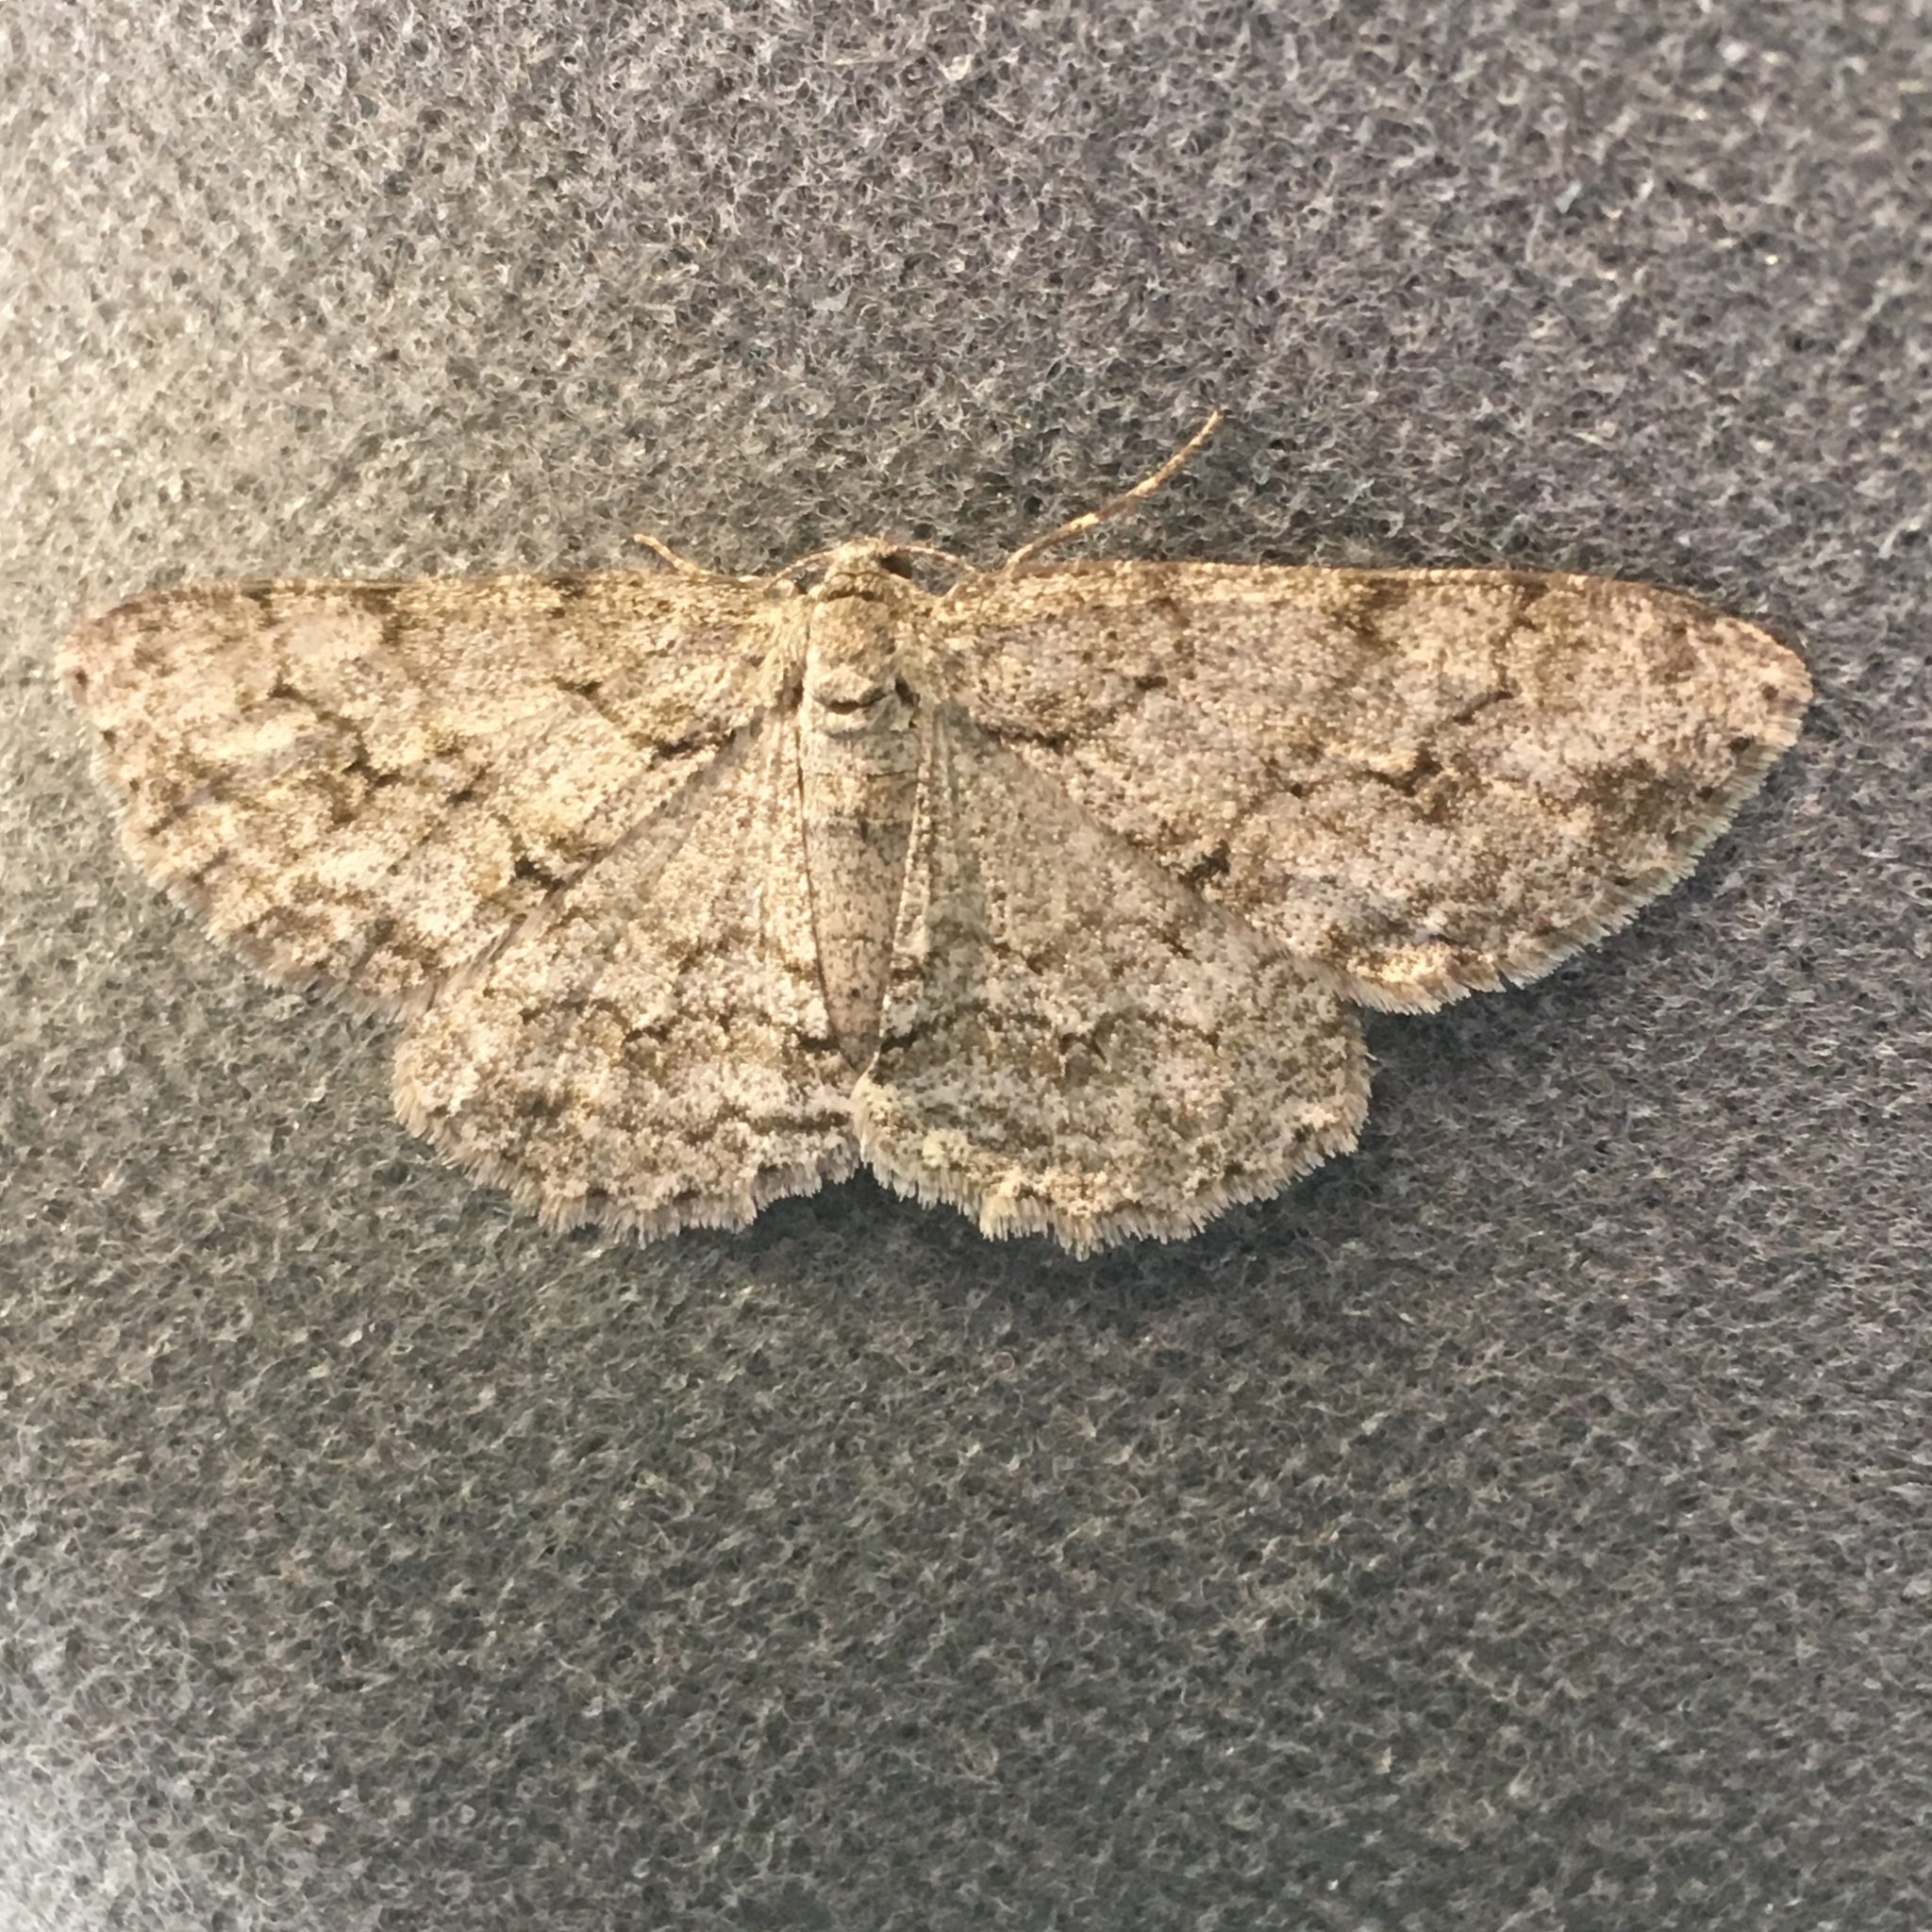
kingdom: Animalia
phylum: Arthropoda
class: Insecta
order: Lepidoptera
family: Geometridae
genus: Ectropis
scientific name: Ectropis crepuscularia
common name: Engrailed
